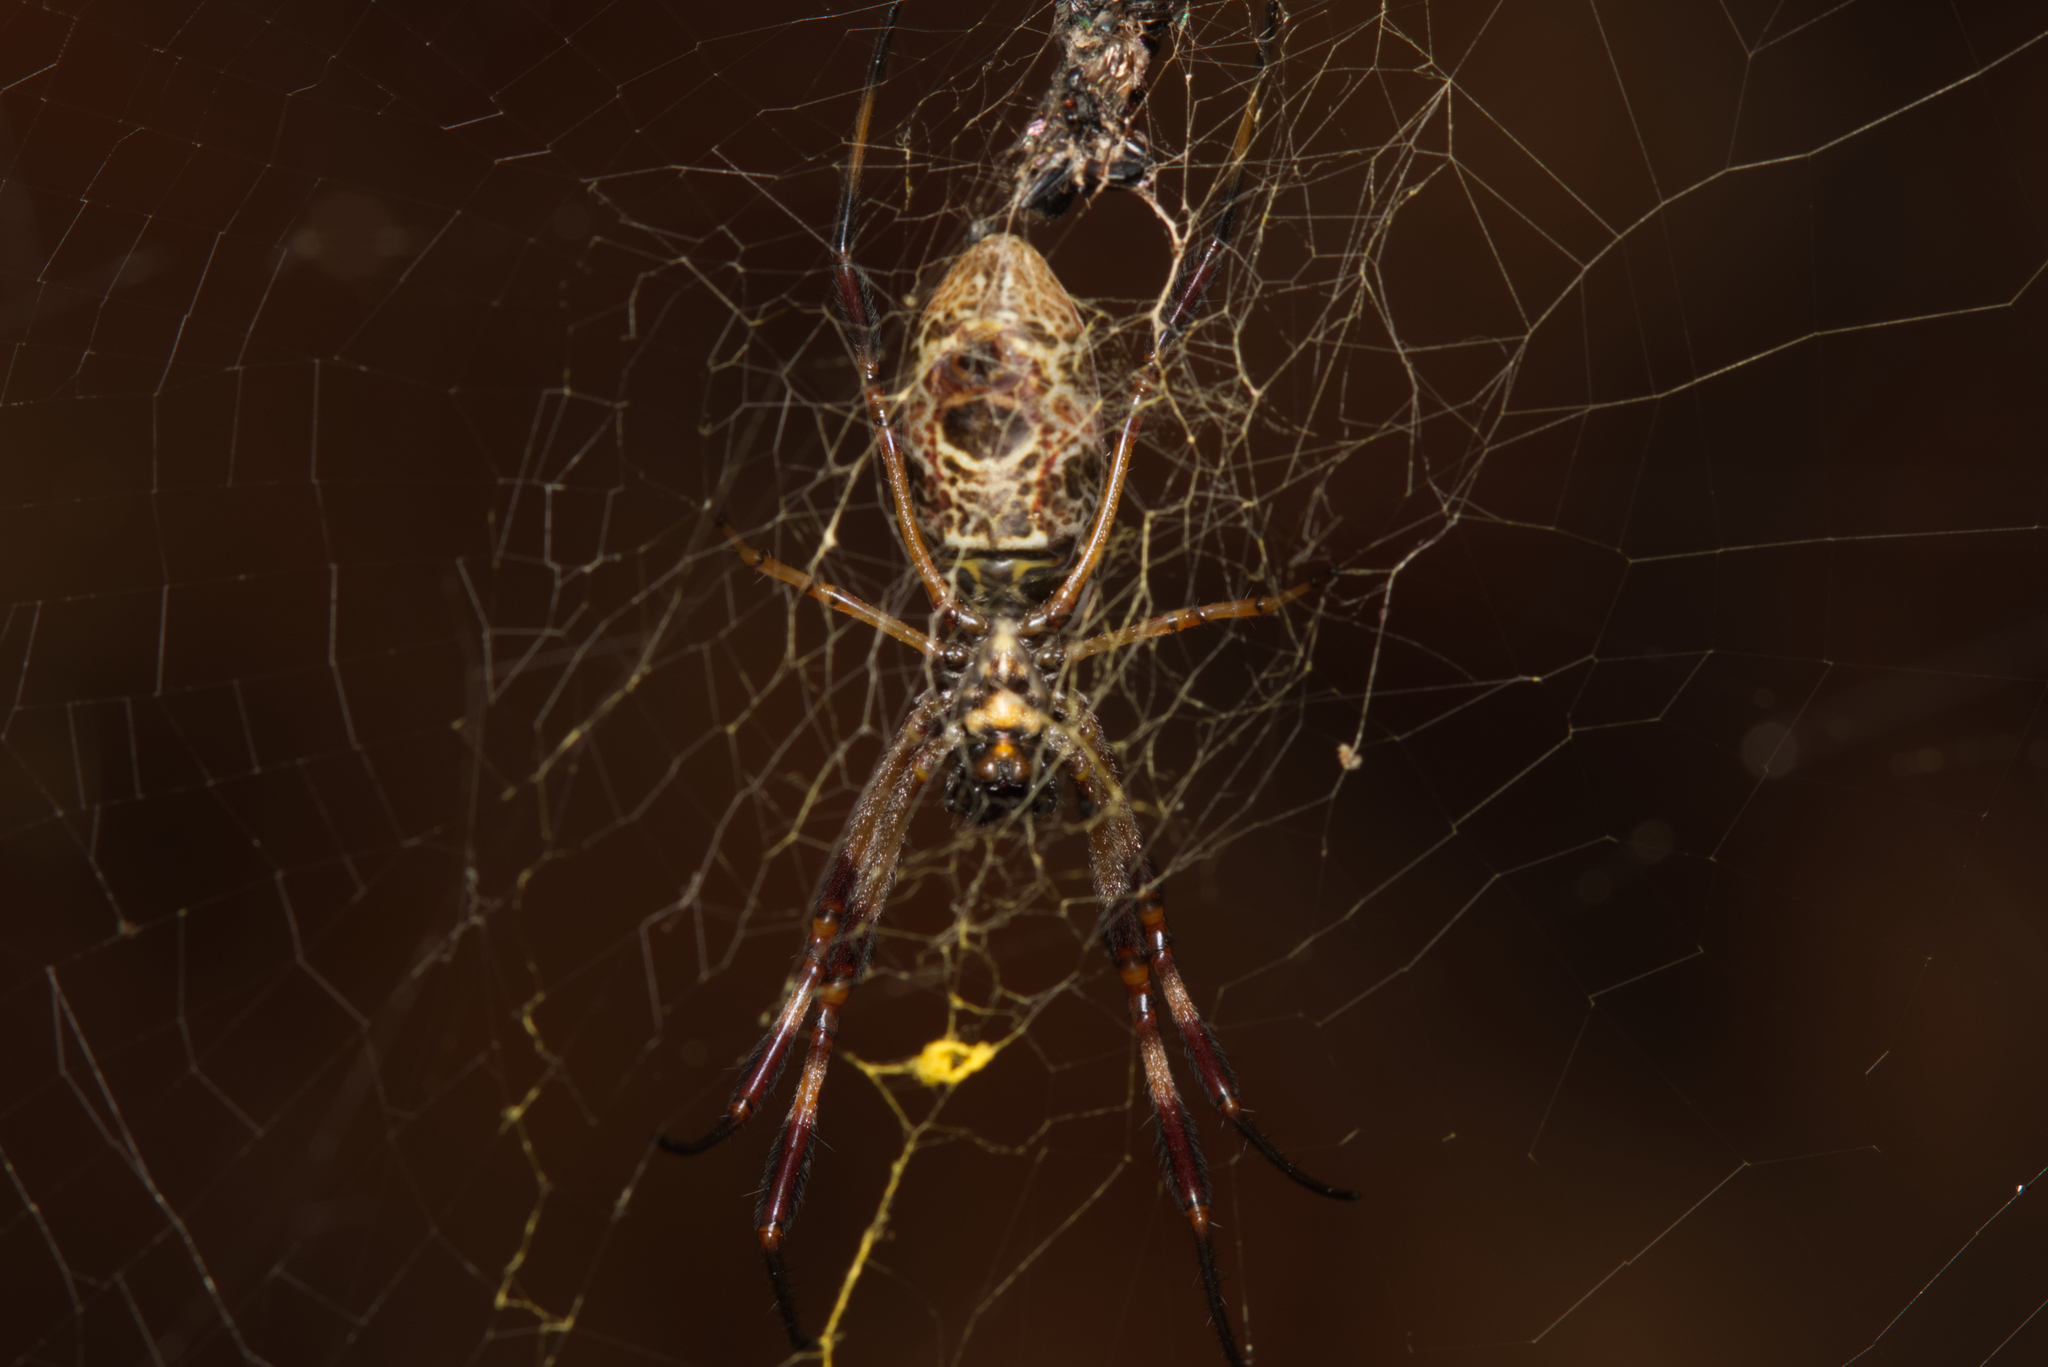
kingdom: Animalia
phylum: Arthropoda
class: Arachnida
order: Araneae
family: Araneidae
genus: Trichonephila
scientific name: Trichonephila edulis
